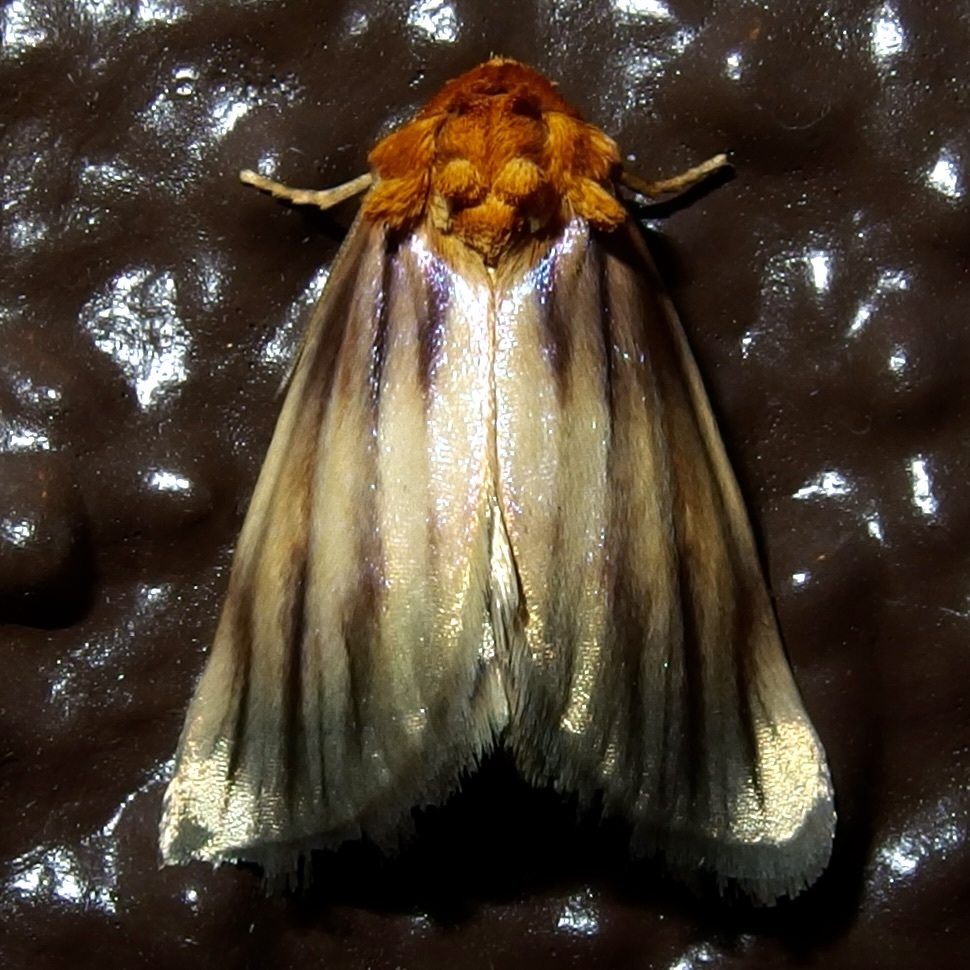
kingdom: Animalia
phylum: Arthropoda
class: Insecta
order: Lepidoptera
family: Noctuidae
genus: Antaplaga
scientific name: Antaplaga plesioglauca
